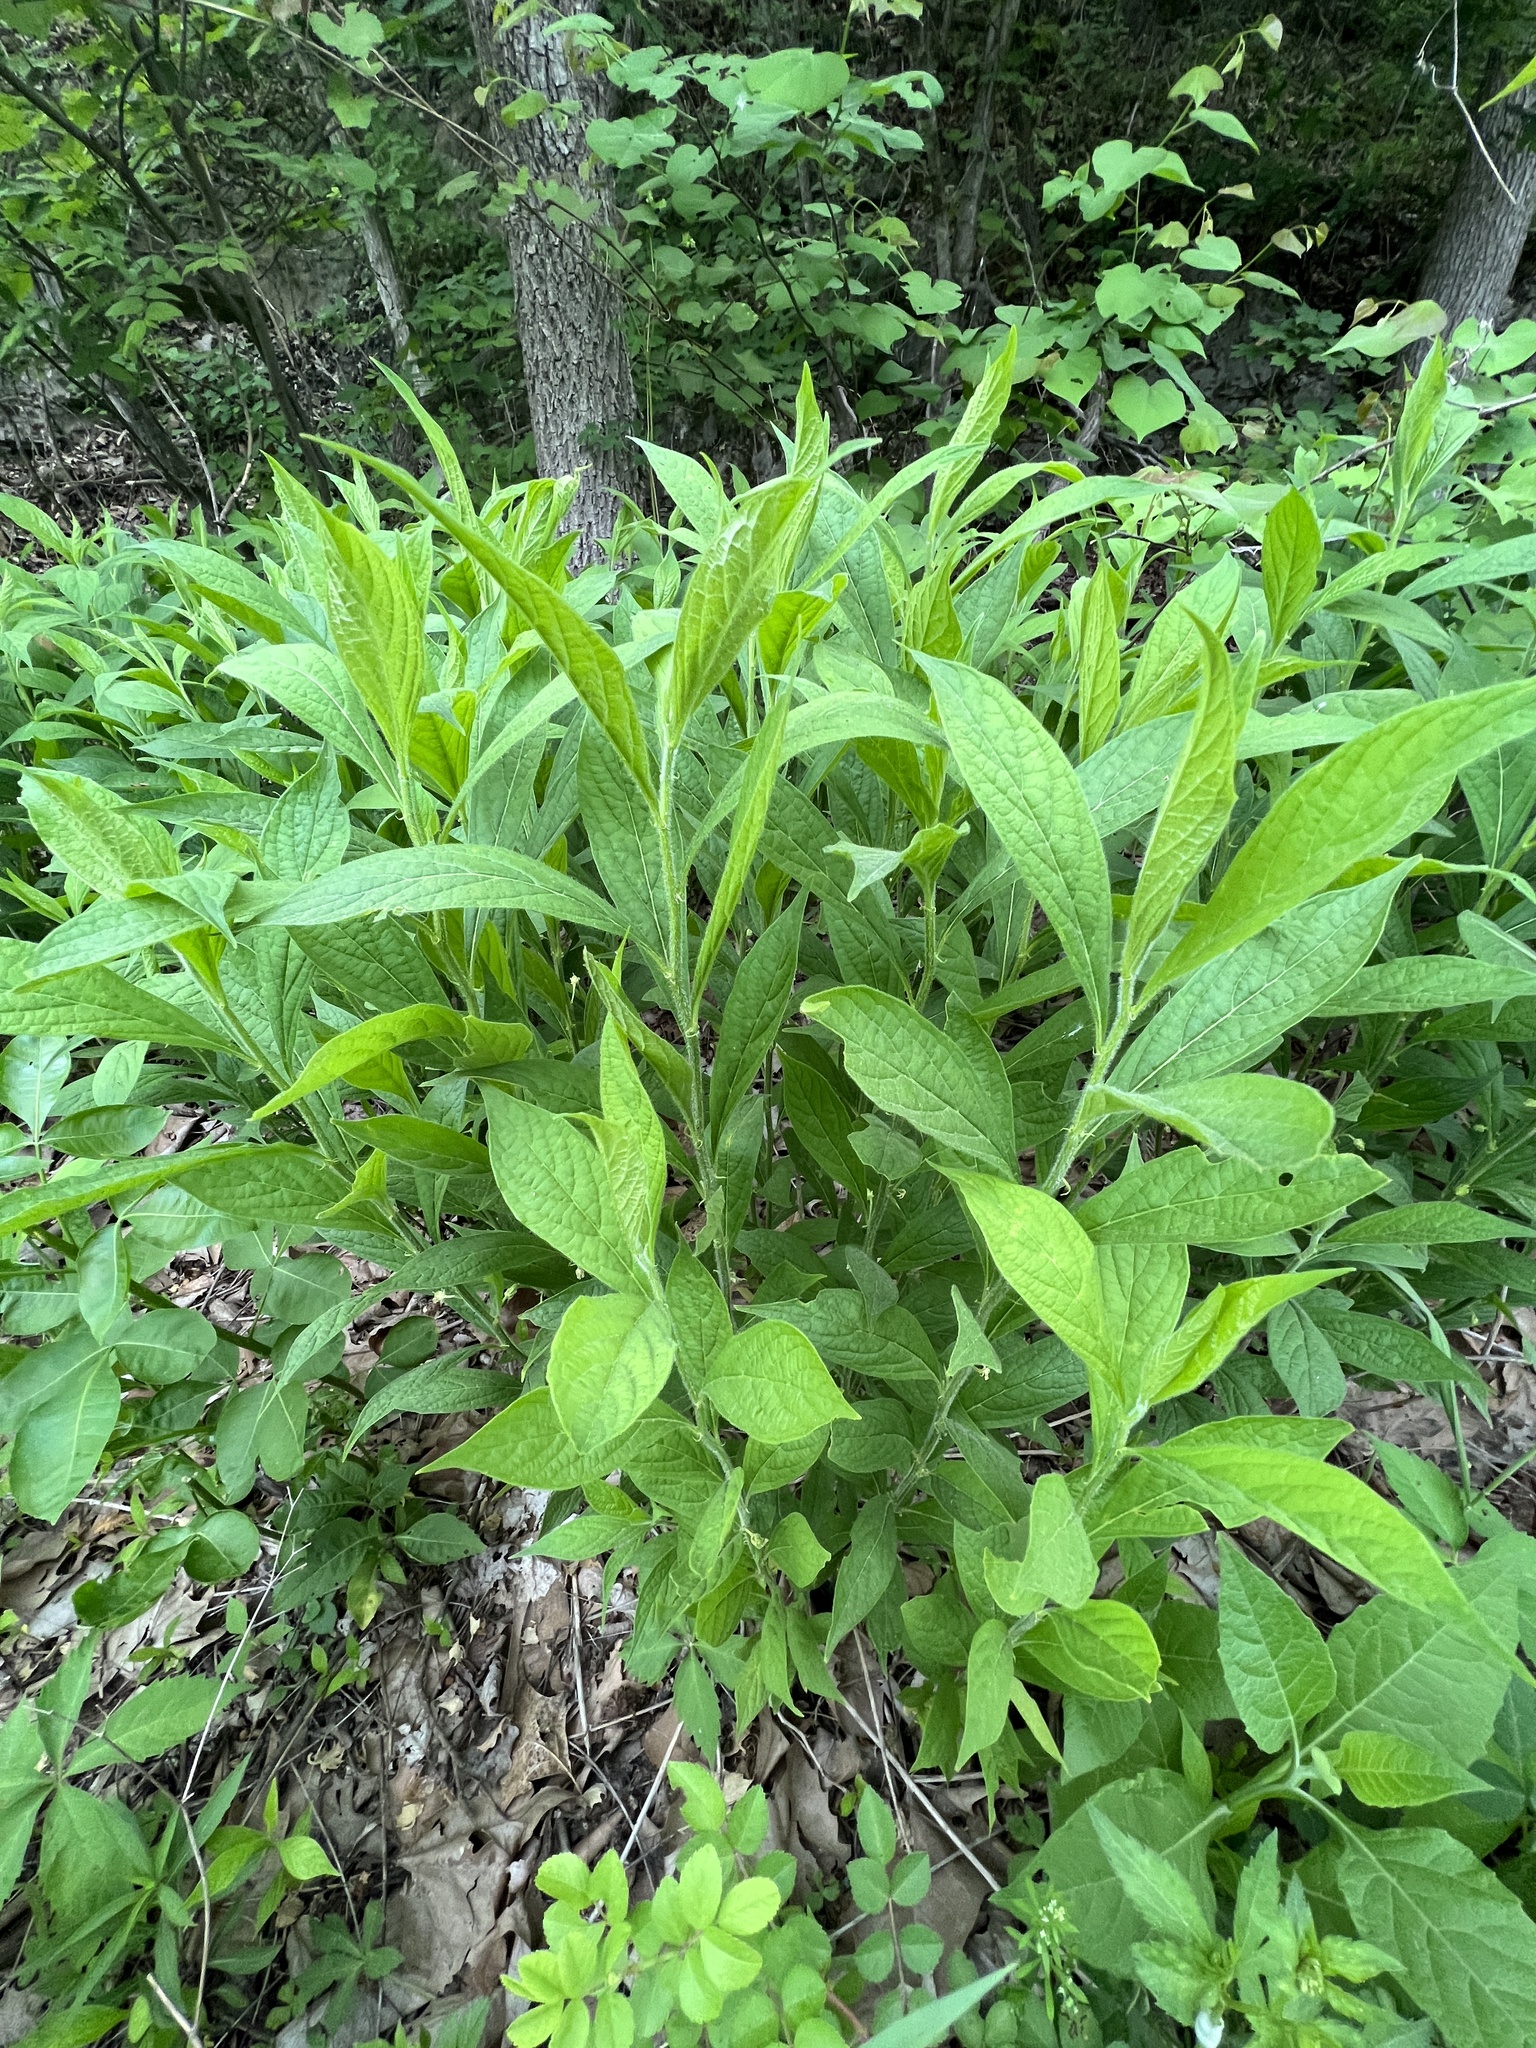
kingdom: Plantae
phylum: Tracheophyta
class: Magnoliopsida
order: Malpighiales
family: Violaceae
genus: Cubelium
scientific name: Cubelium concolor
